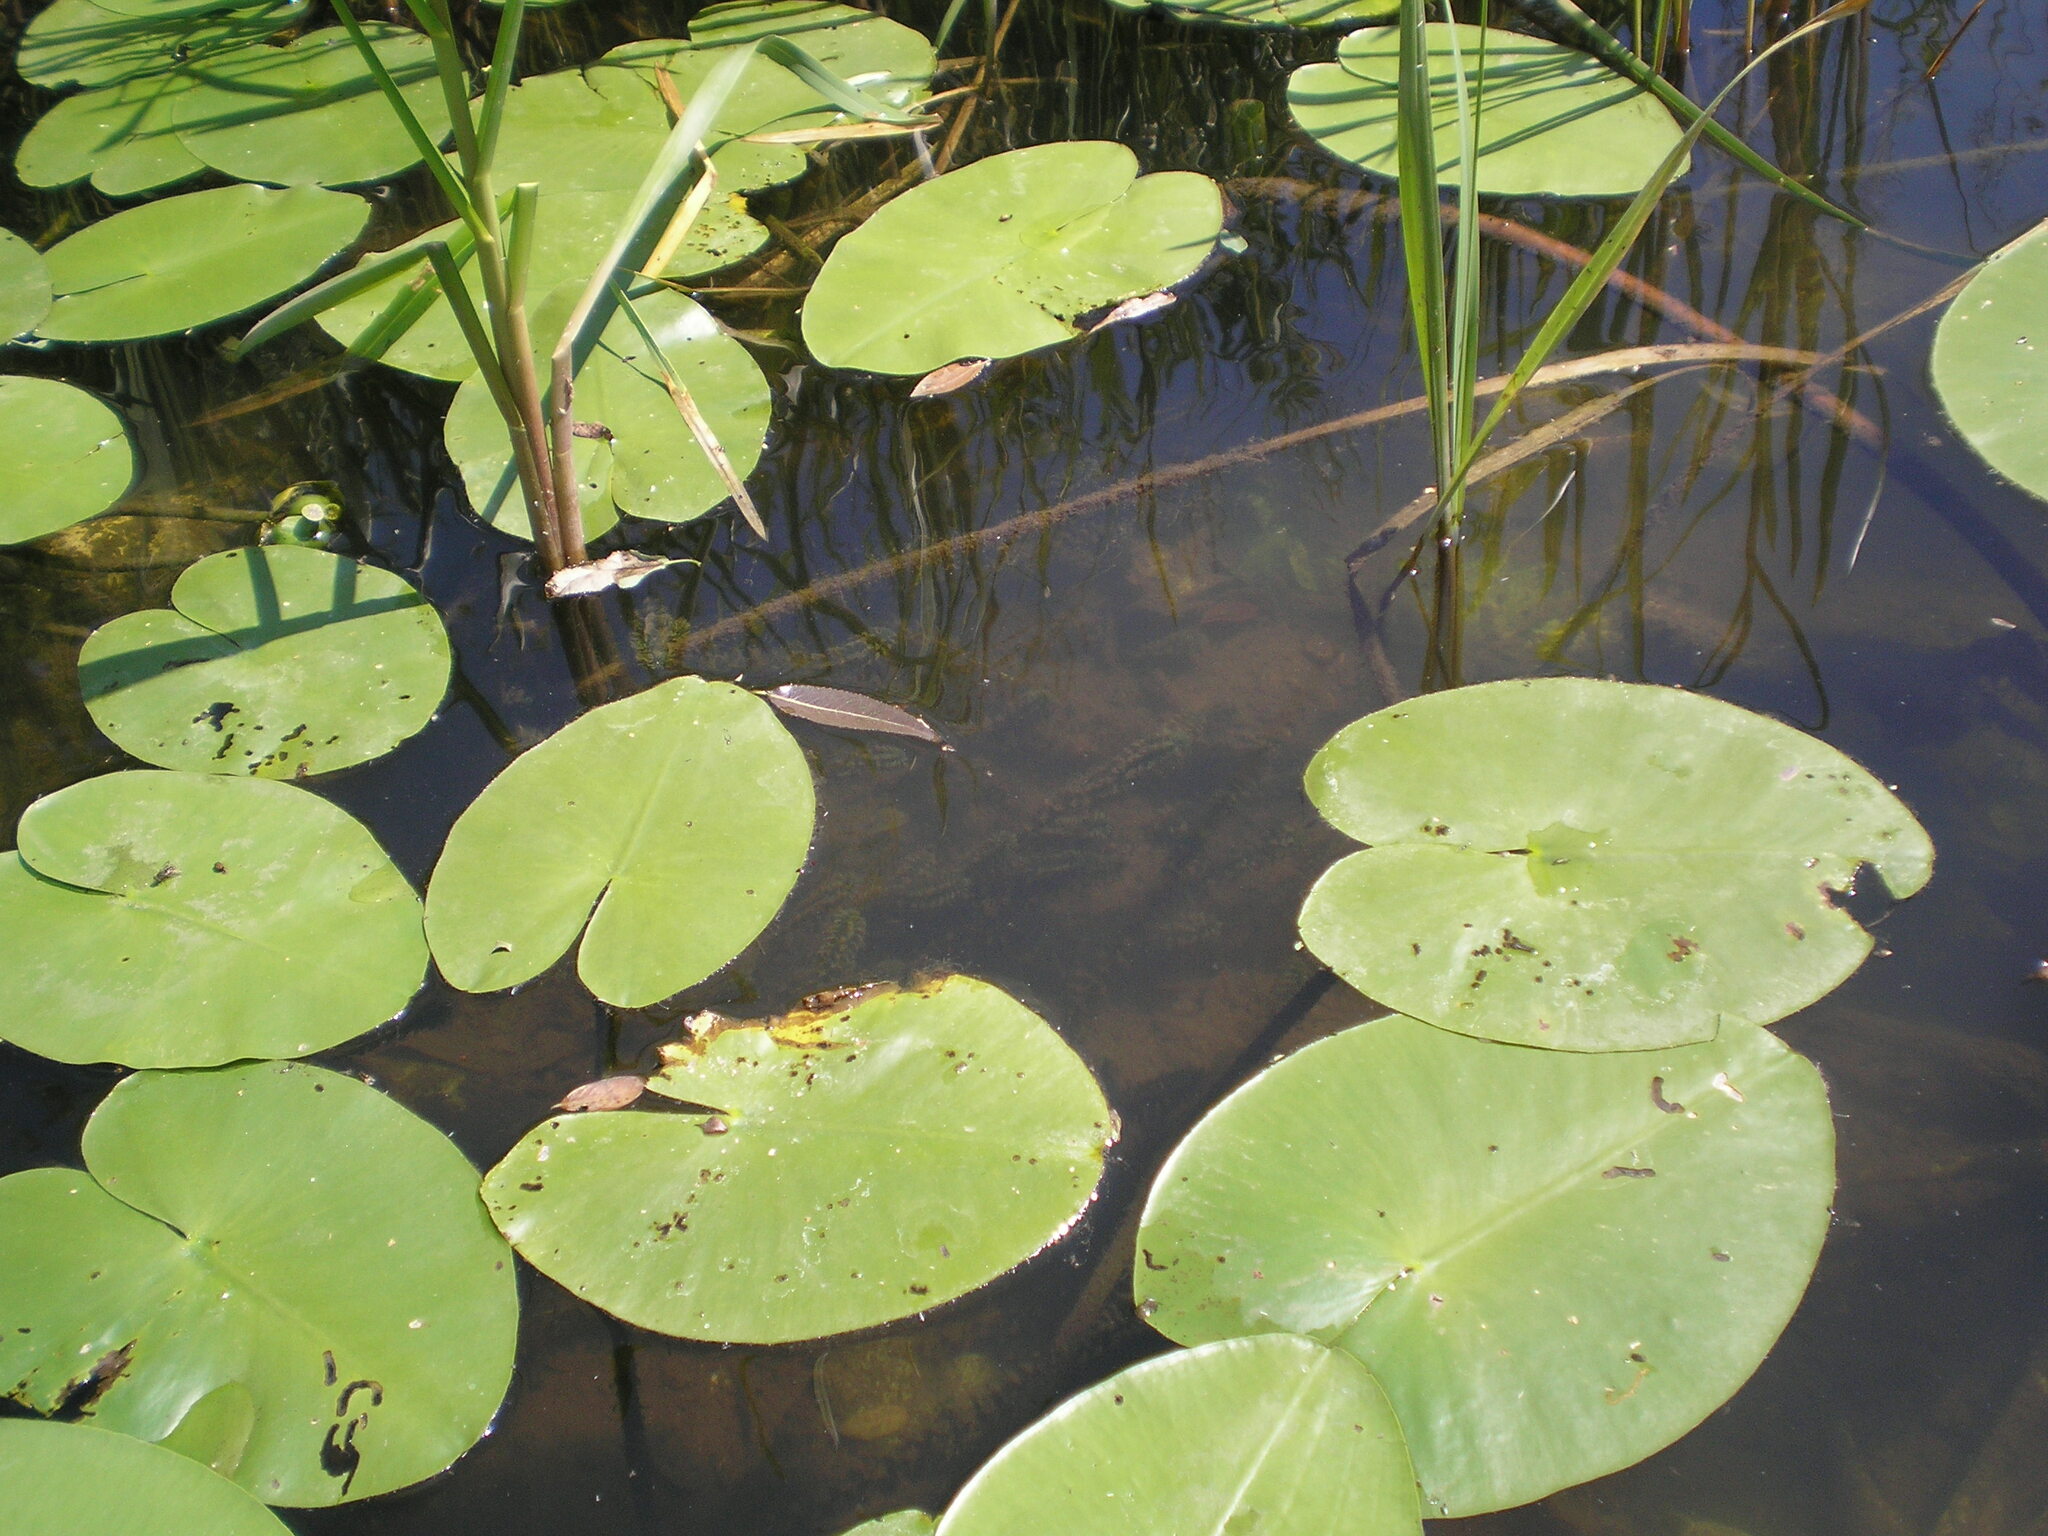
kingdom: Plantae
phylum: Tracheophyta
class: Magnoliopsida
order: Nymphaeales
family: Nymphaeaceae
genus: Nuphar
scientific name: Nuphar lutea
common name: Yellow water-lily
